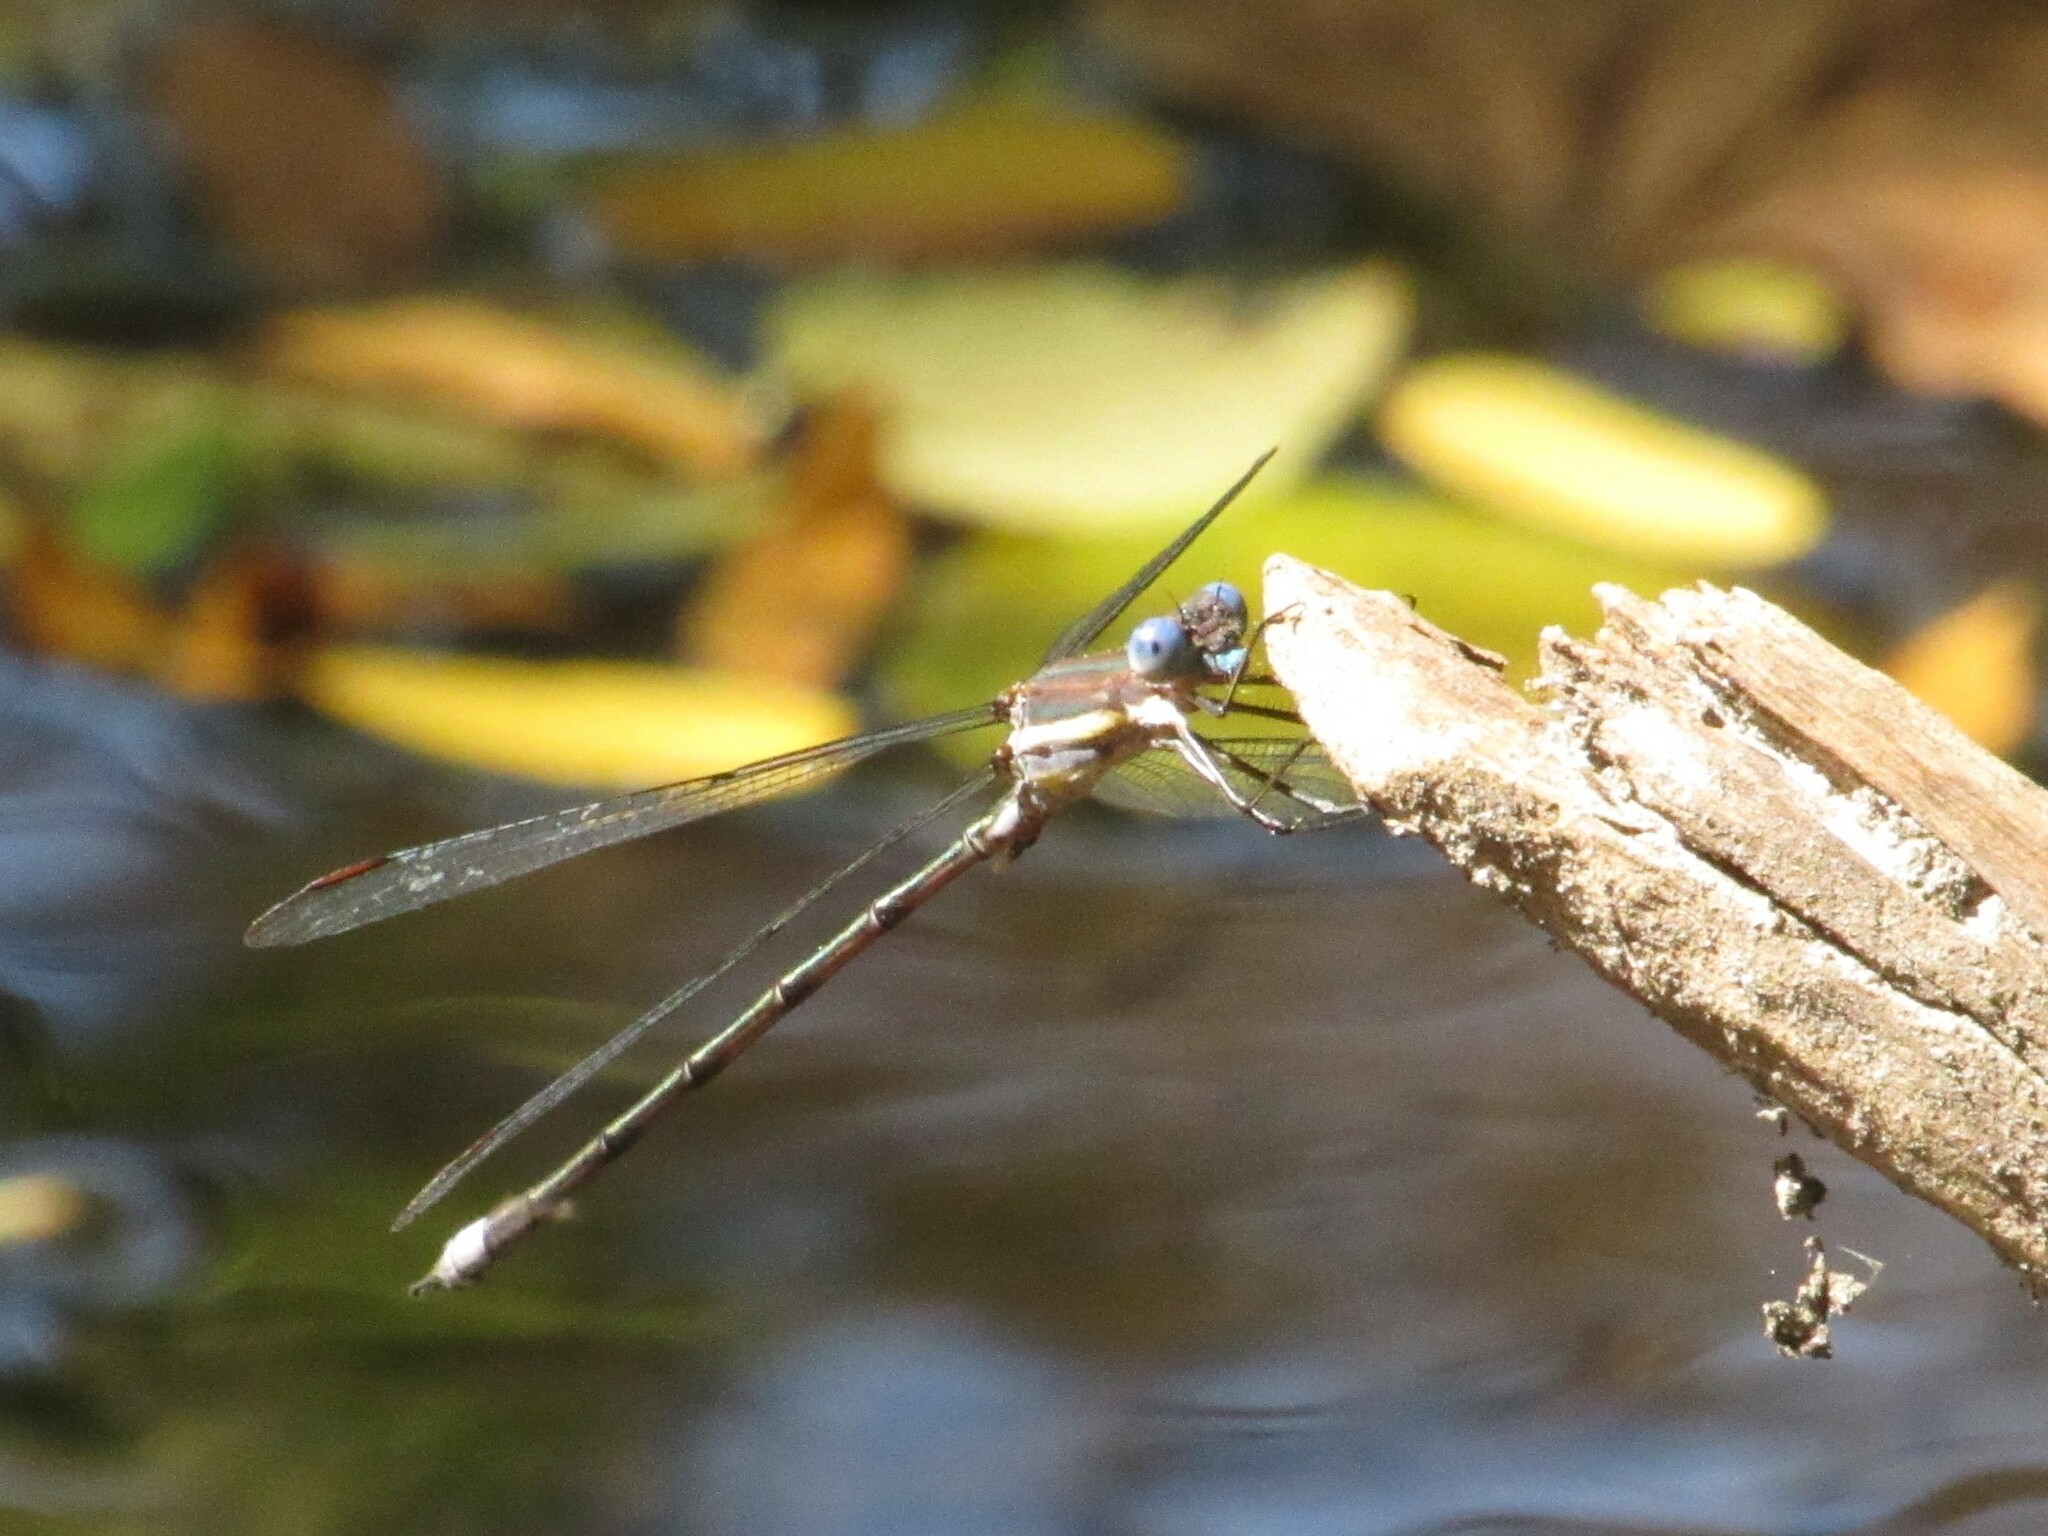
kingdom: Animalia
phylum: Arthropoda
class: Insecta
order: Odonata
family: Lestidae
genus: Archilestes
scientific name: Archilestes grandis
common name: Great spreadwing
